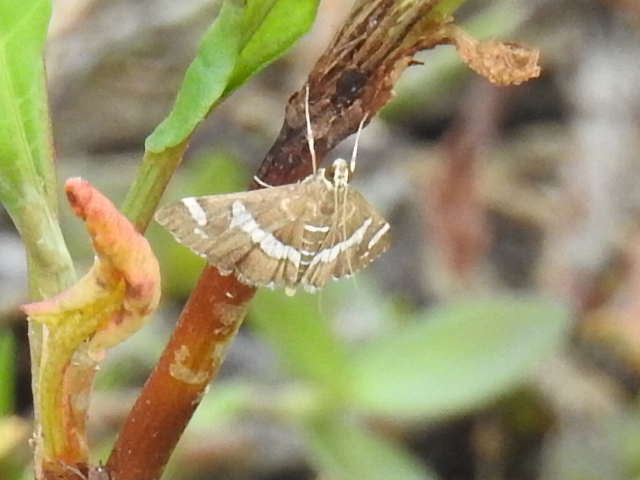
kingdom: Animalia
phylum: Arthropoda
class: Insecta
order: Lepidoptera
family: Crambidae
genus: Spoladea
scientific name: Spoladea recurvalis
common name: Beet webworm moth
